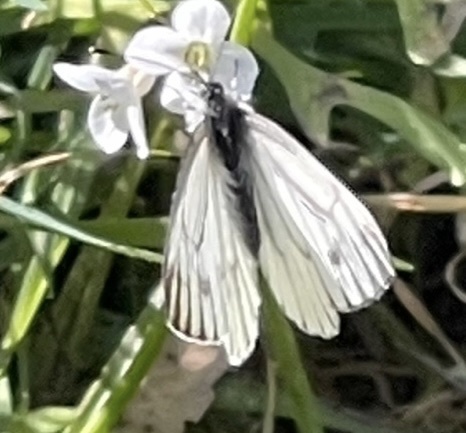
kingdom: Animalia
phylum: Arthropoda
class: Insecta
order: Lepidoptera
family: Pieridae
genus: Pieris
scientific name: Pieris marginalis
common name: Margined white
